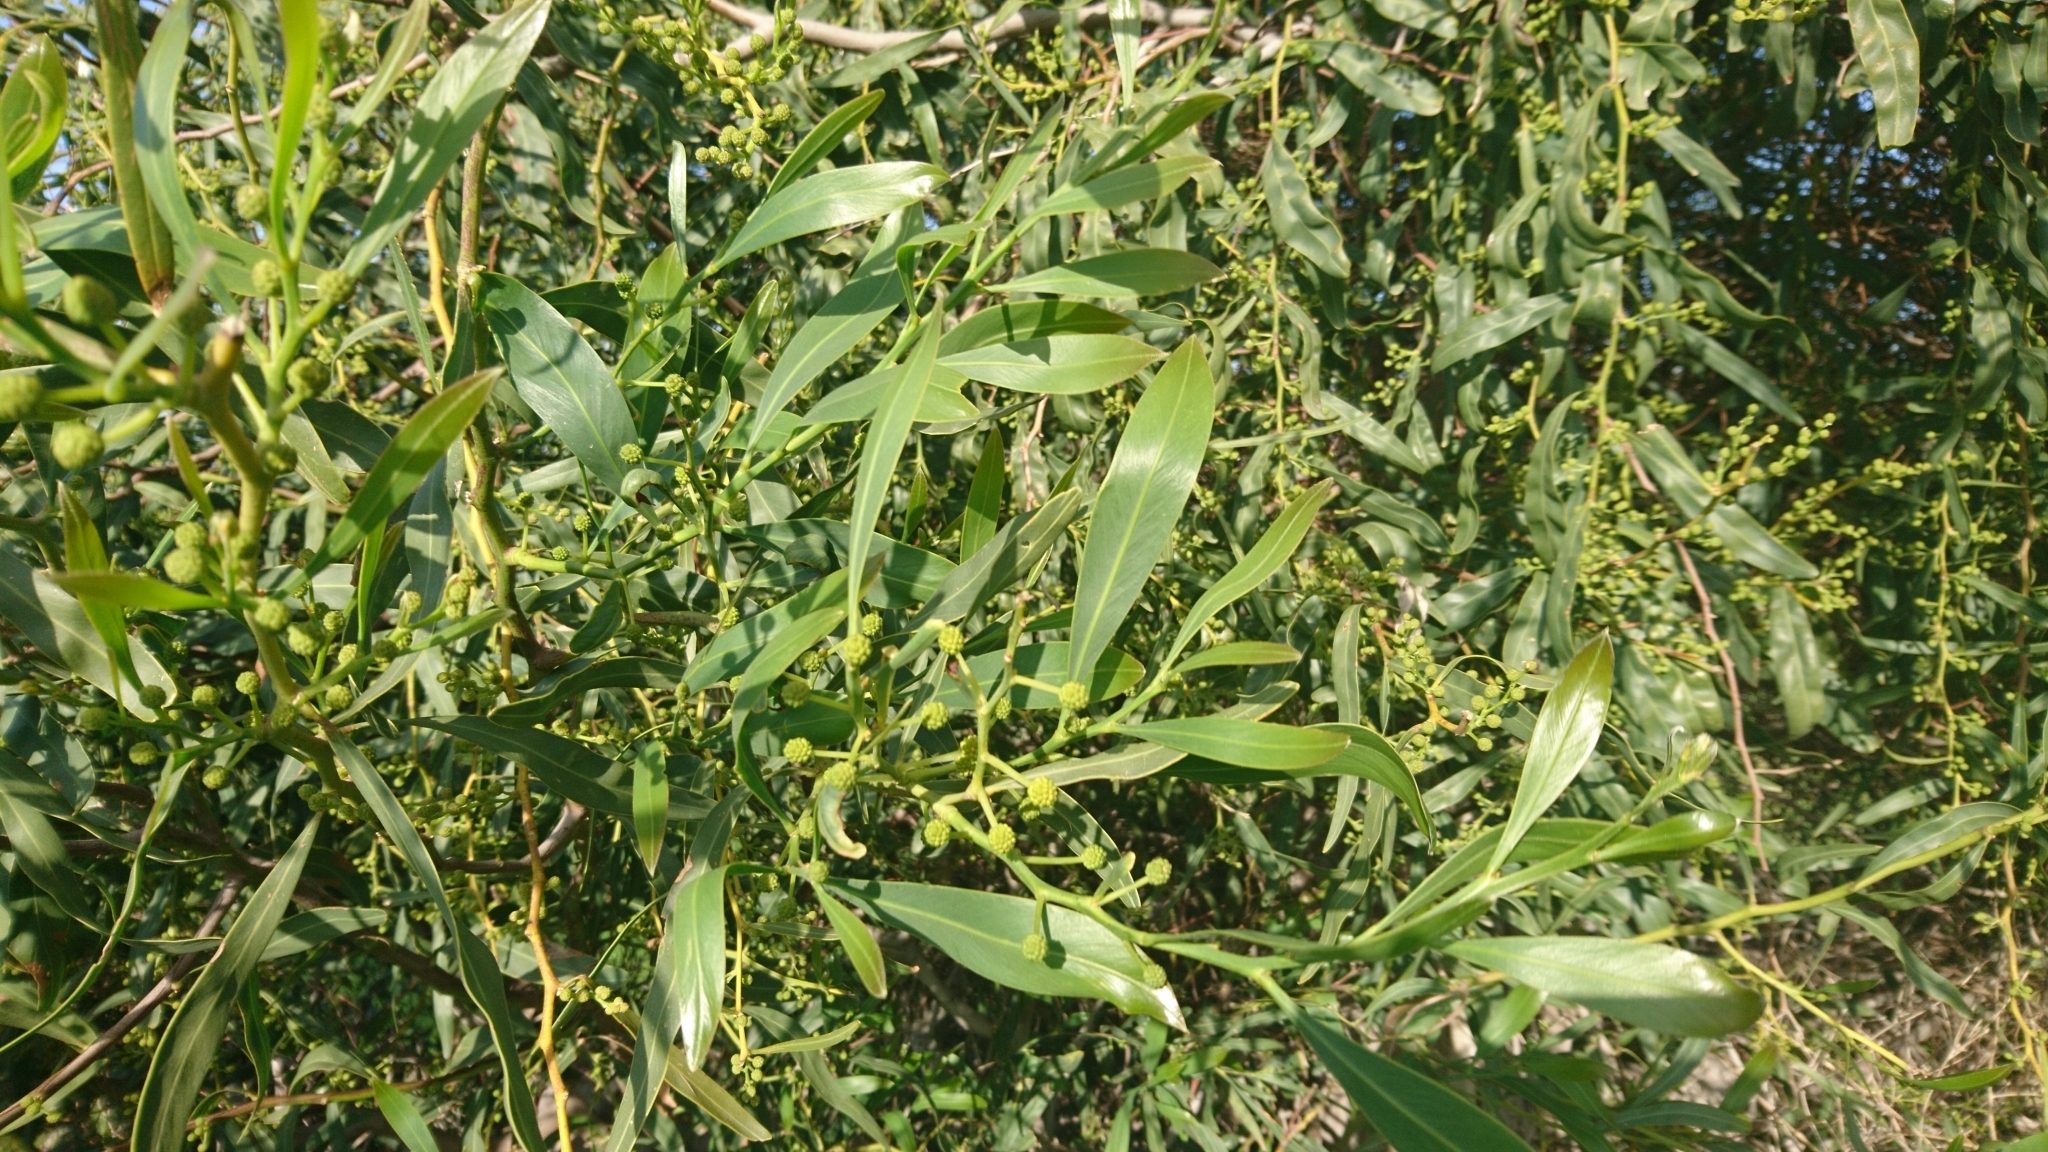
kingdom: Plantae
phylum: Tracheophyta
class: Magnoliopsida
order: Fabales
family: Fabaceae
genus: Acacia
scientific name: Acacia saligna
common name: Orange wattle
